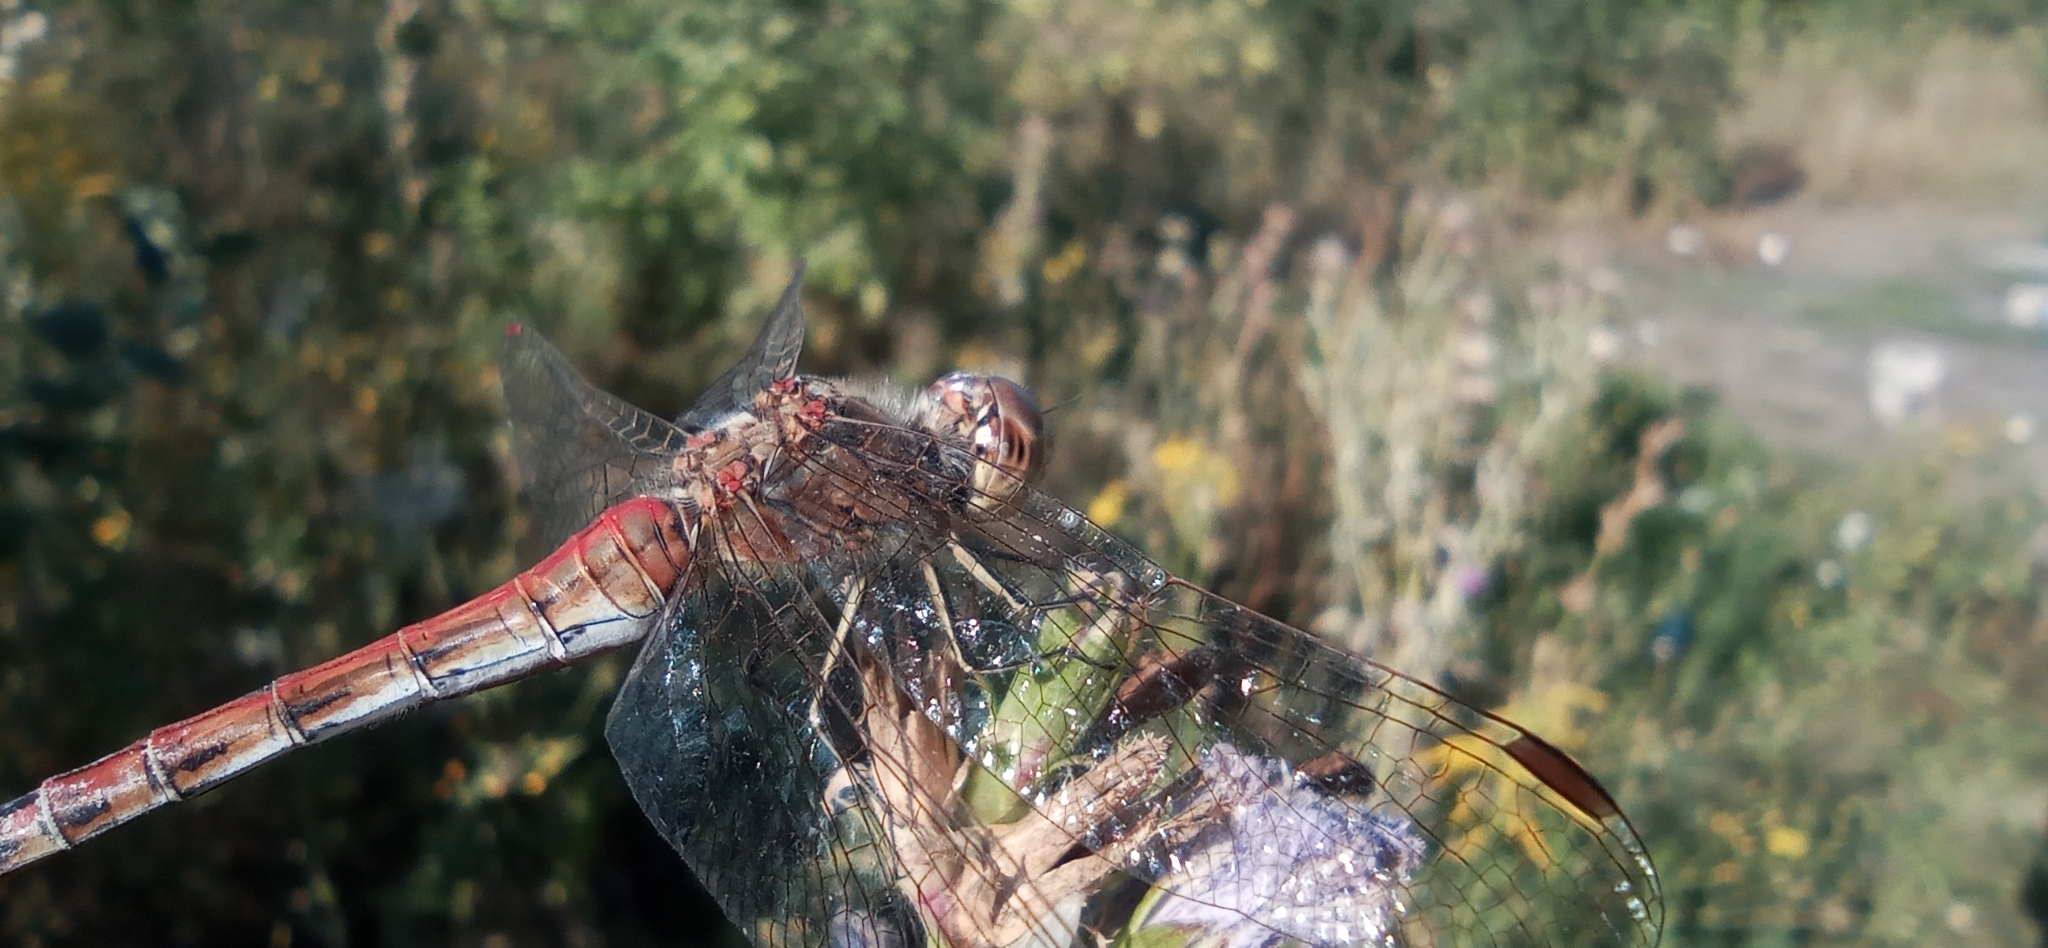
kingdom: Animalia
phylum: Arthropoda
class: Insecta
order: Odonata
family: Libellulidae
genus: Sympetrum
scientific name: Sympetrum vulgatum
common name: Vagrant darter
